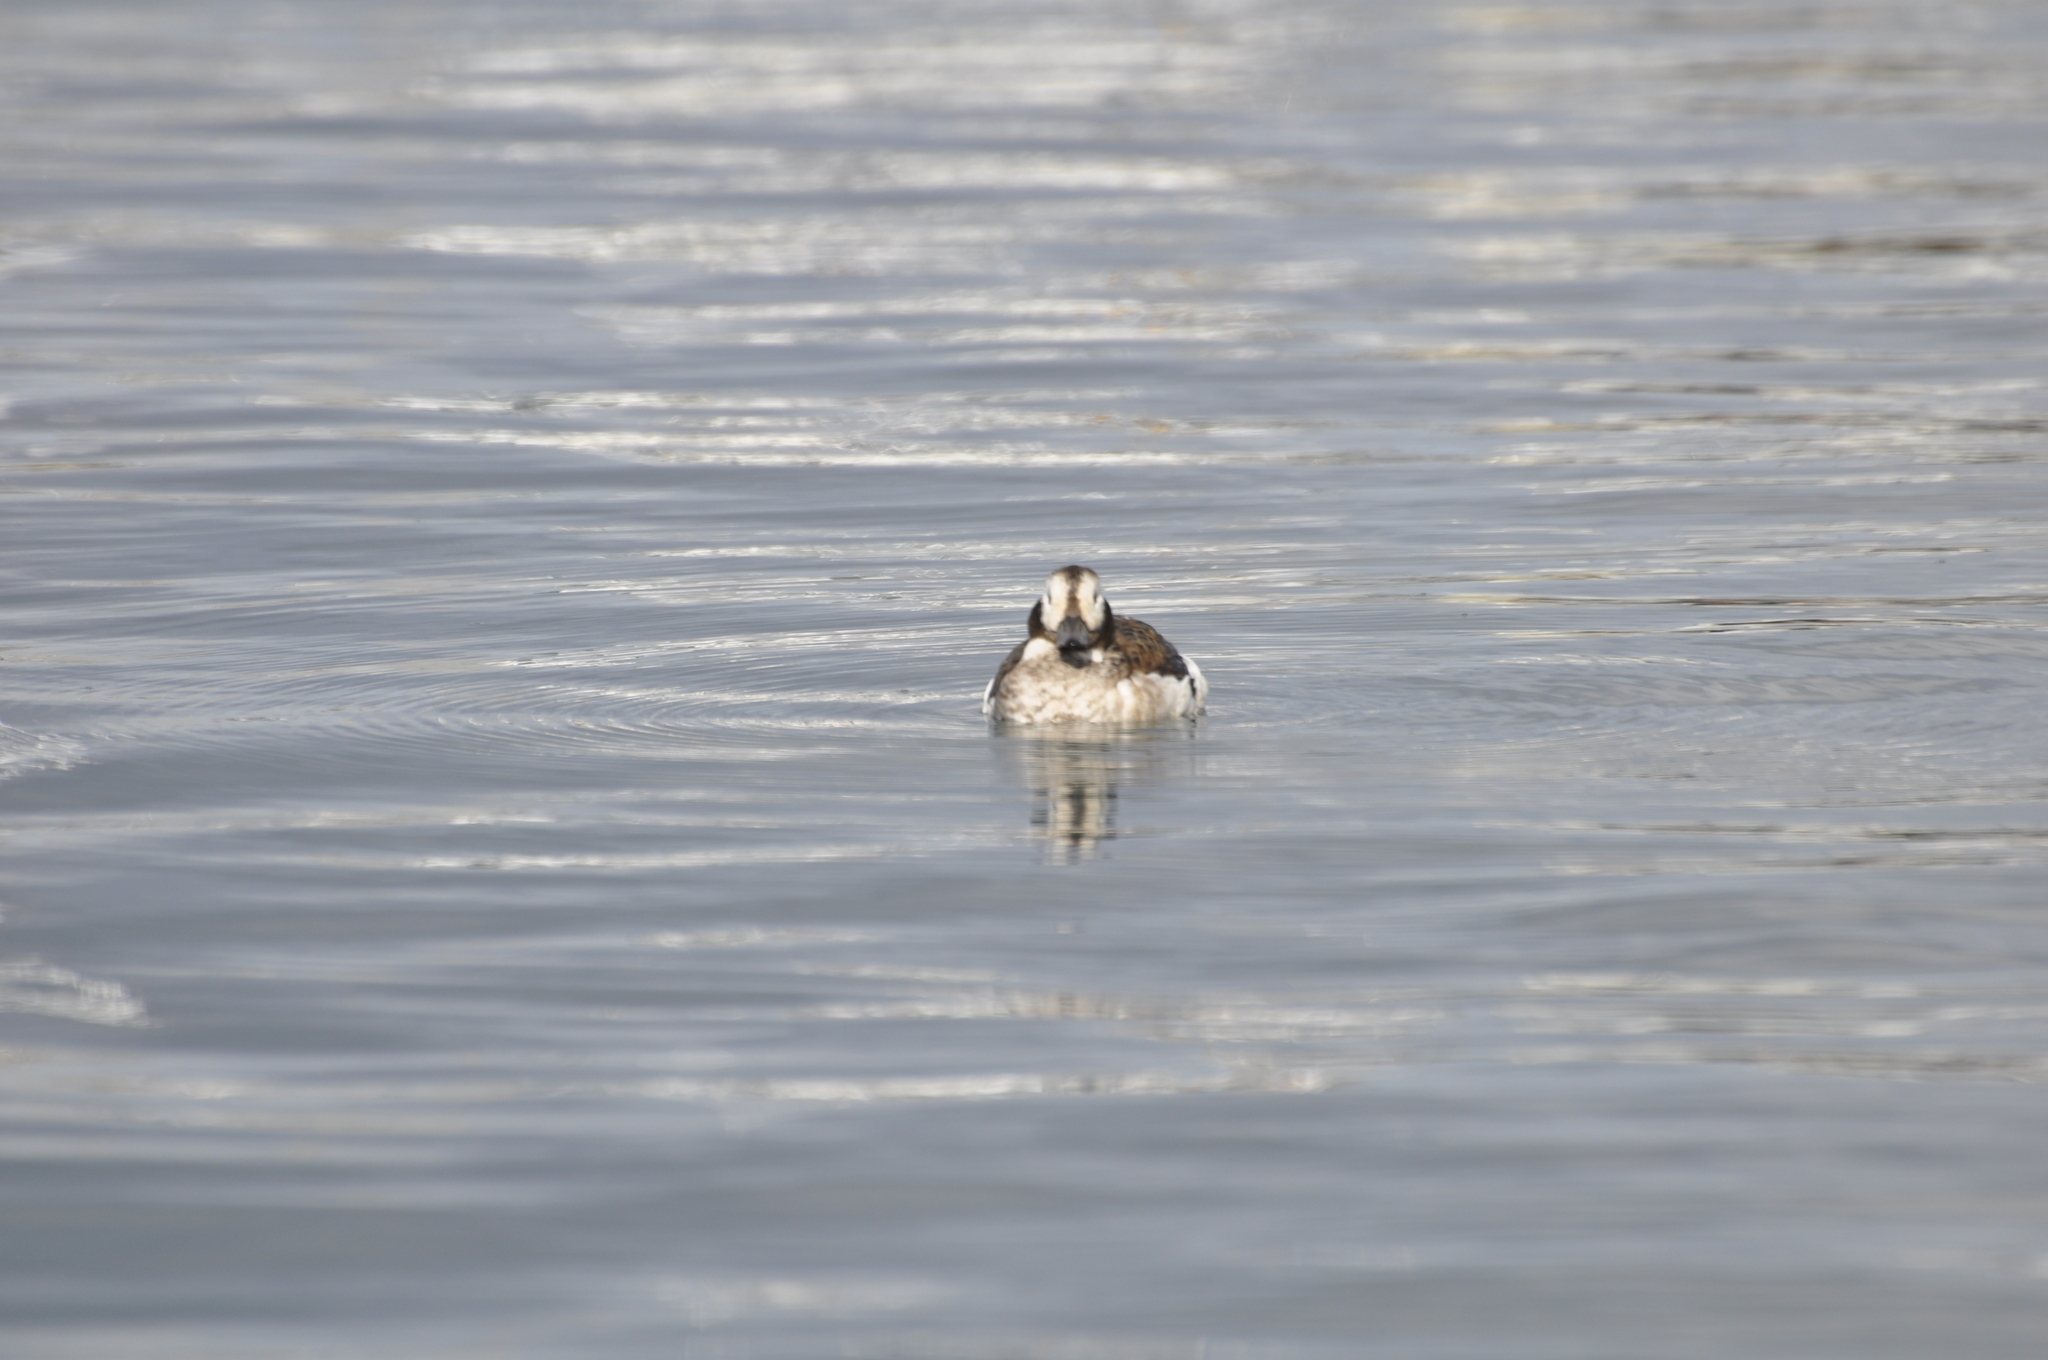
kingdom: Animalia
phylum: Chordata
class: Aves
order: Anseriformes
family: Anatidae
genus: Clangula
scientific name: Clangula hyemalis
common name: Long-tailed duck
